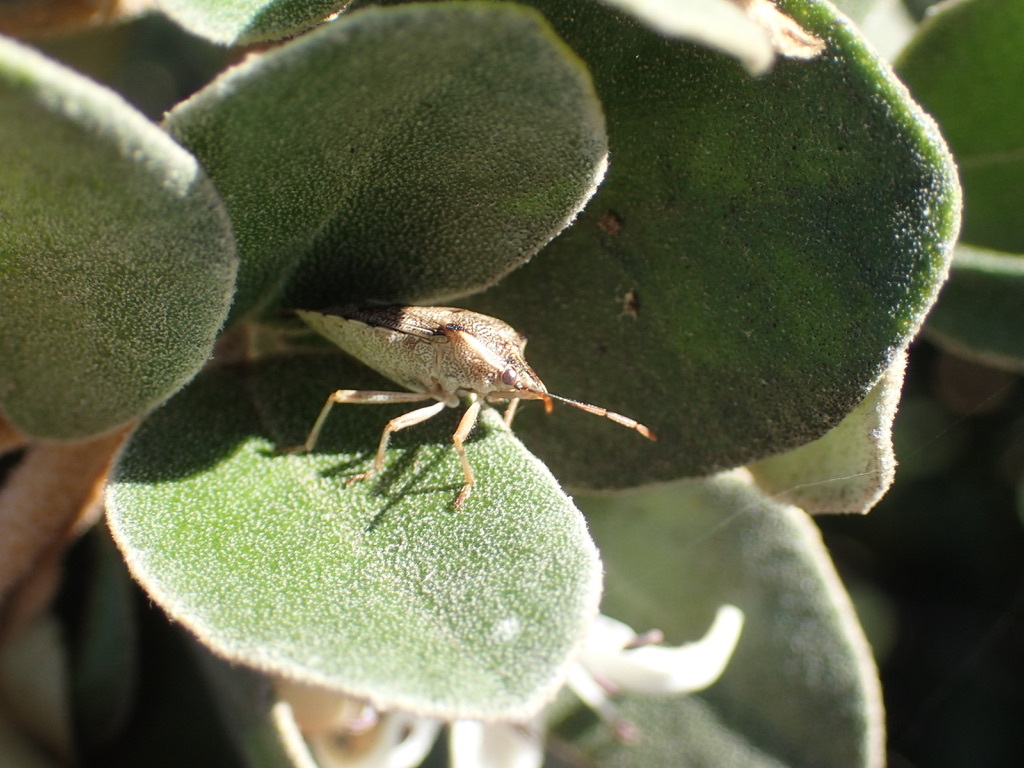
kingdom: Animalia
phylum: Arthropoda
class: Insecta
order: Hemiptera
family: Pentatomidae
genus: Oechalia
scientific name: Oechalia schellenbergii
